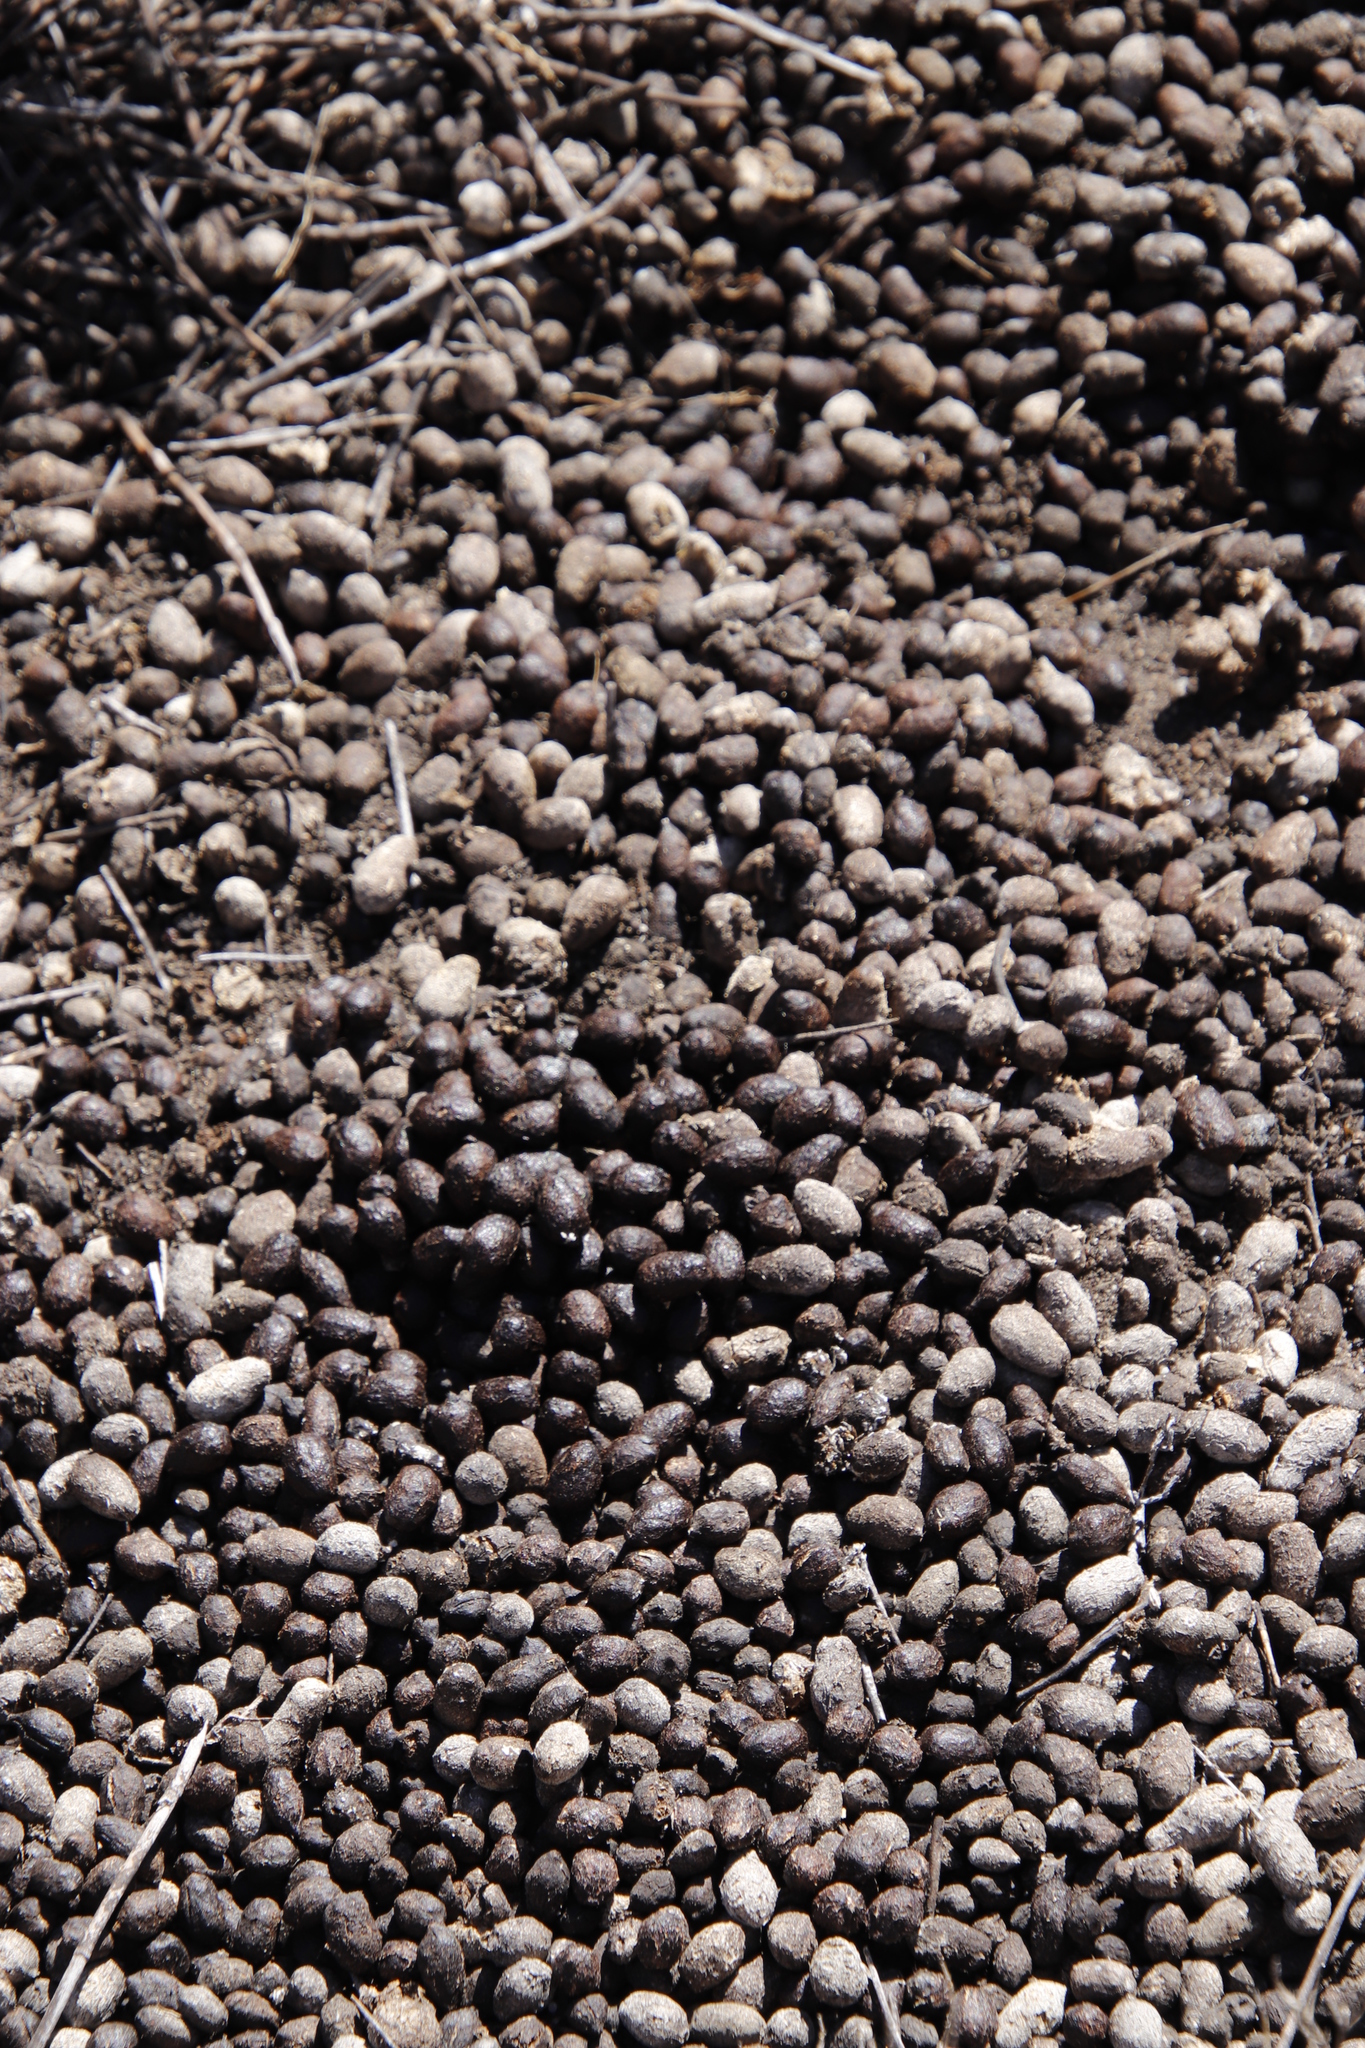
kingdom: Animalia
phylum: Chordata
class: Mammalia
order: Artiodactyla
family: Bovidae
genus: Oreotragus
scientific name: Oreotragus oreotragus
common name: Klipspringer
